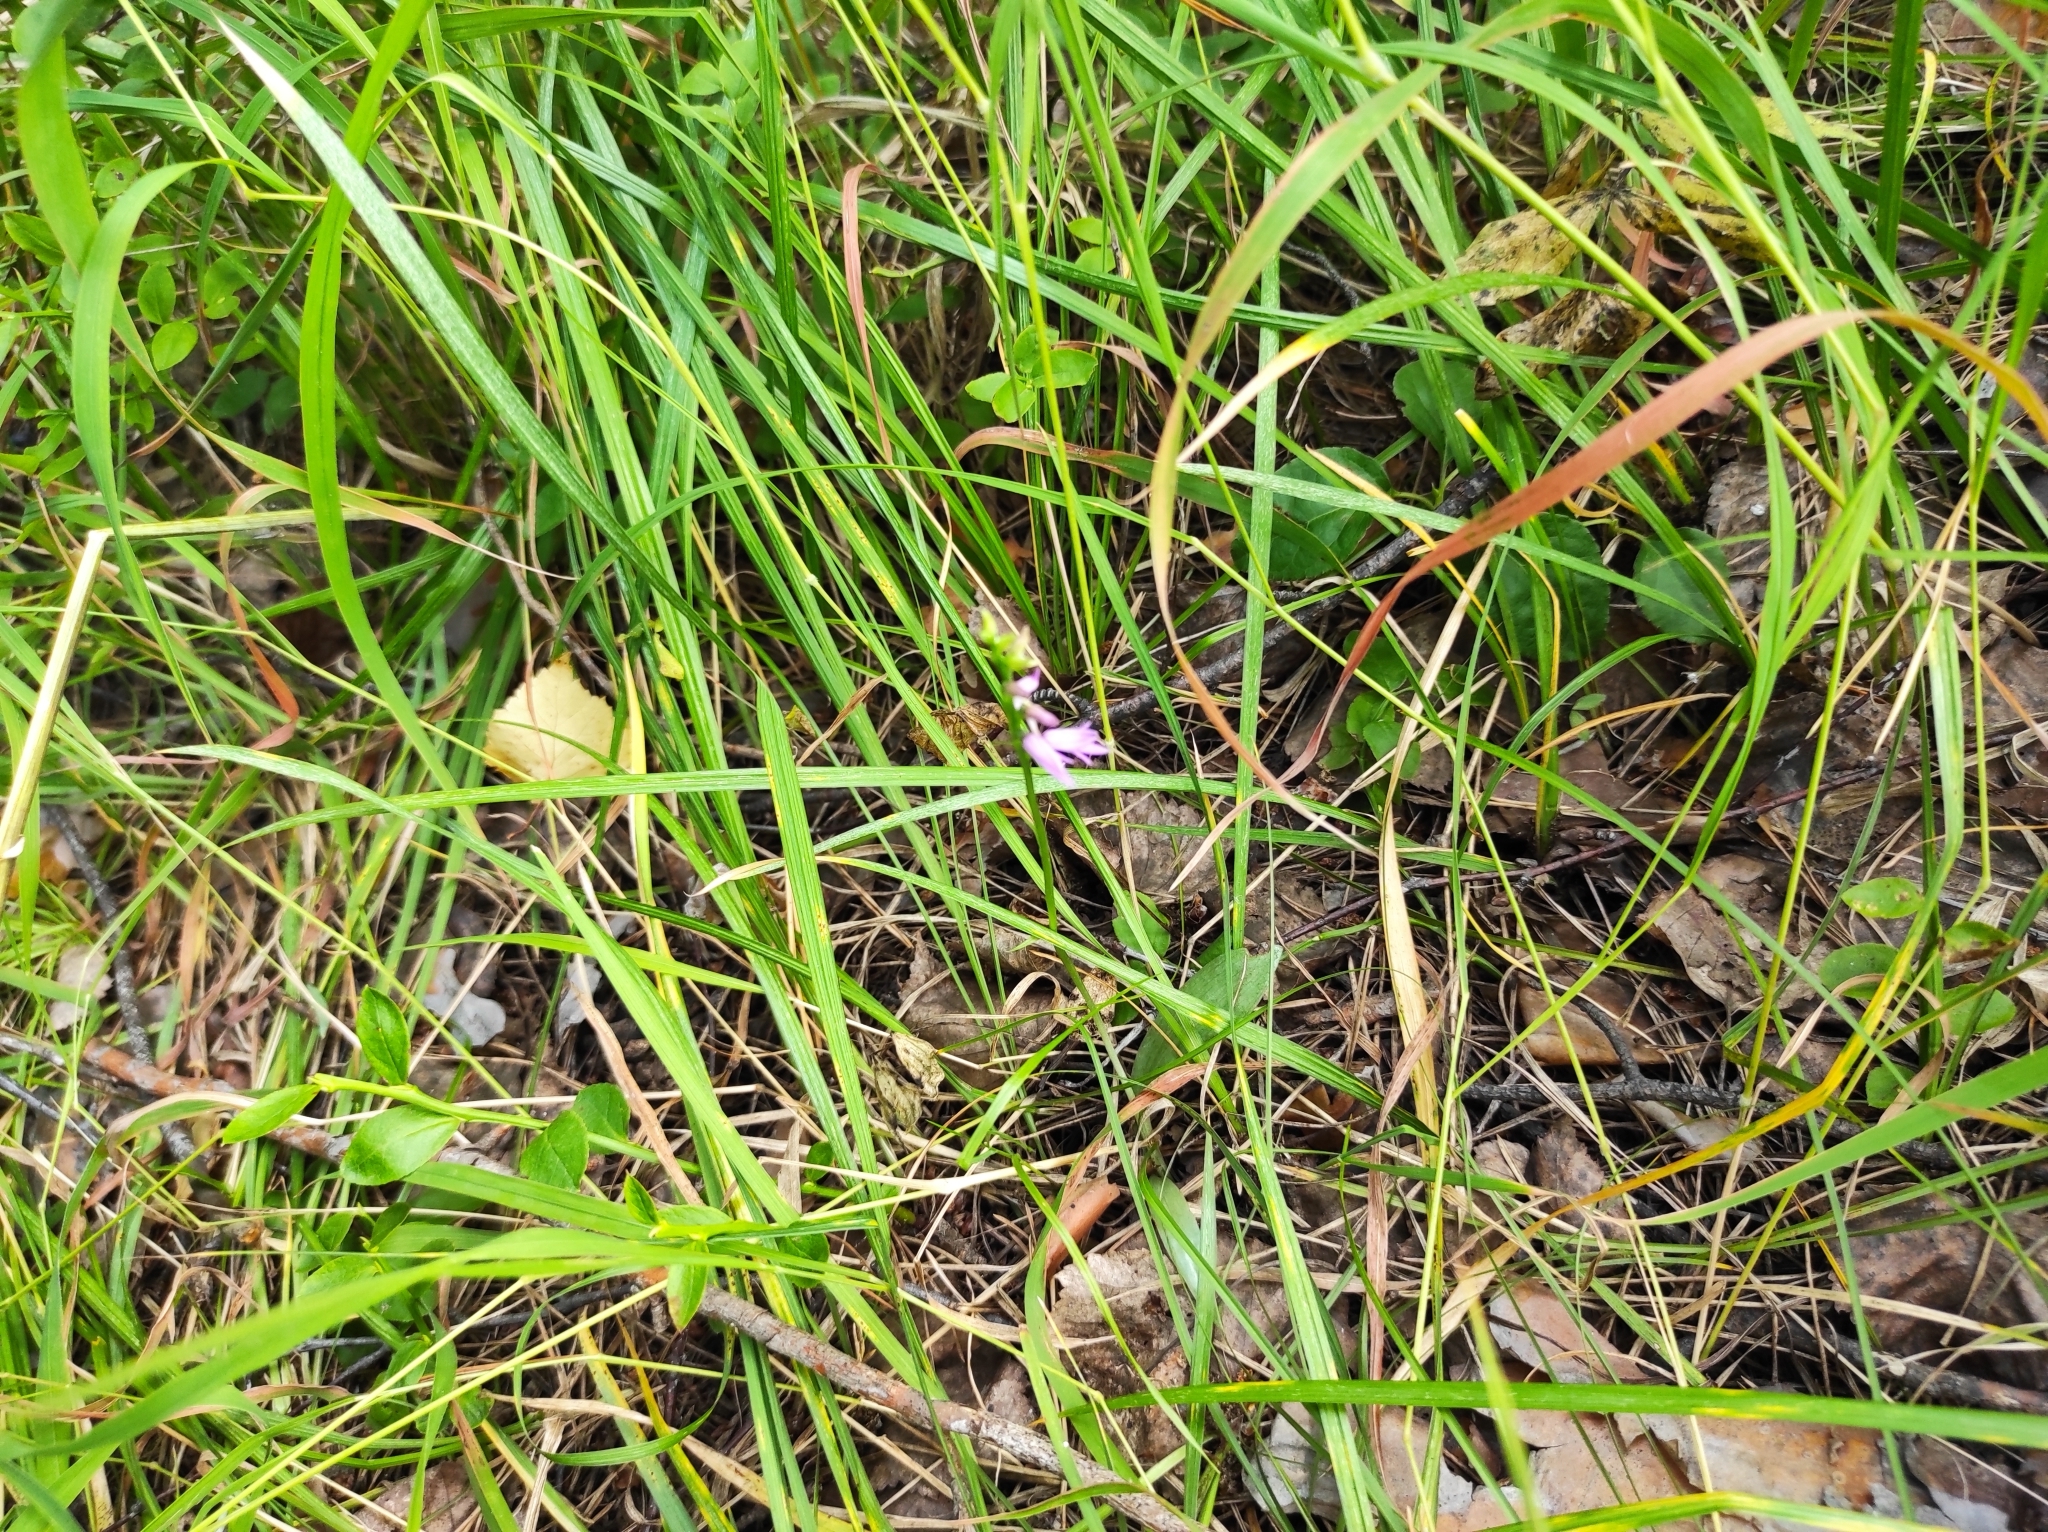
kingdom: Plantae
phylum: Tracheophyta
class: Liliopsida
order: Asparagales
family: Orchidaceae
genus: Hemipilia
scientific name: Hemipilia cucullata
